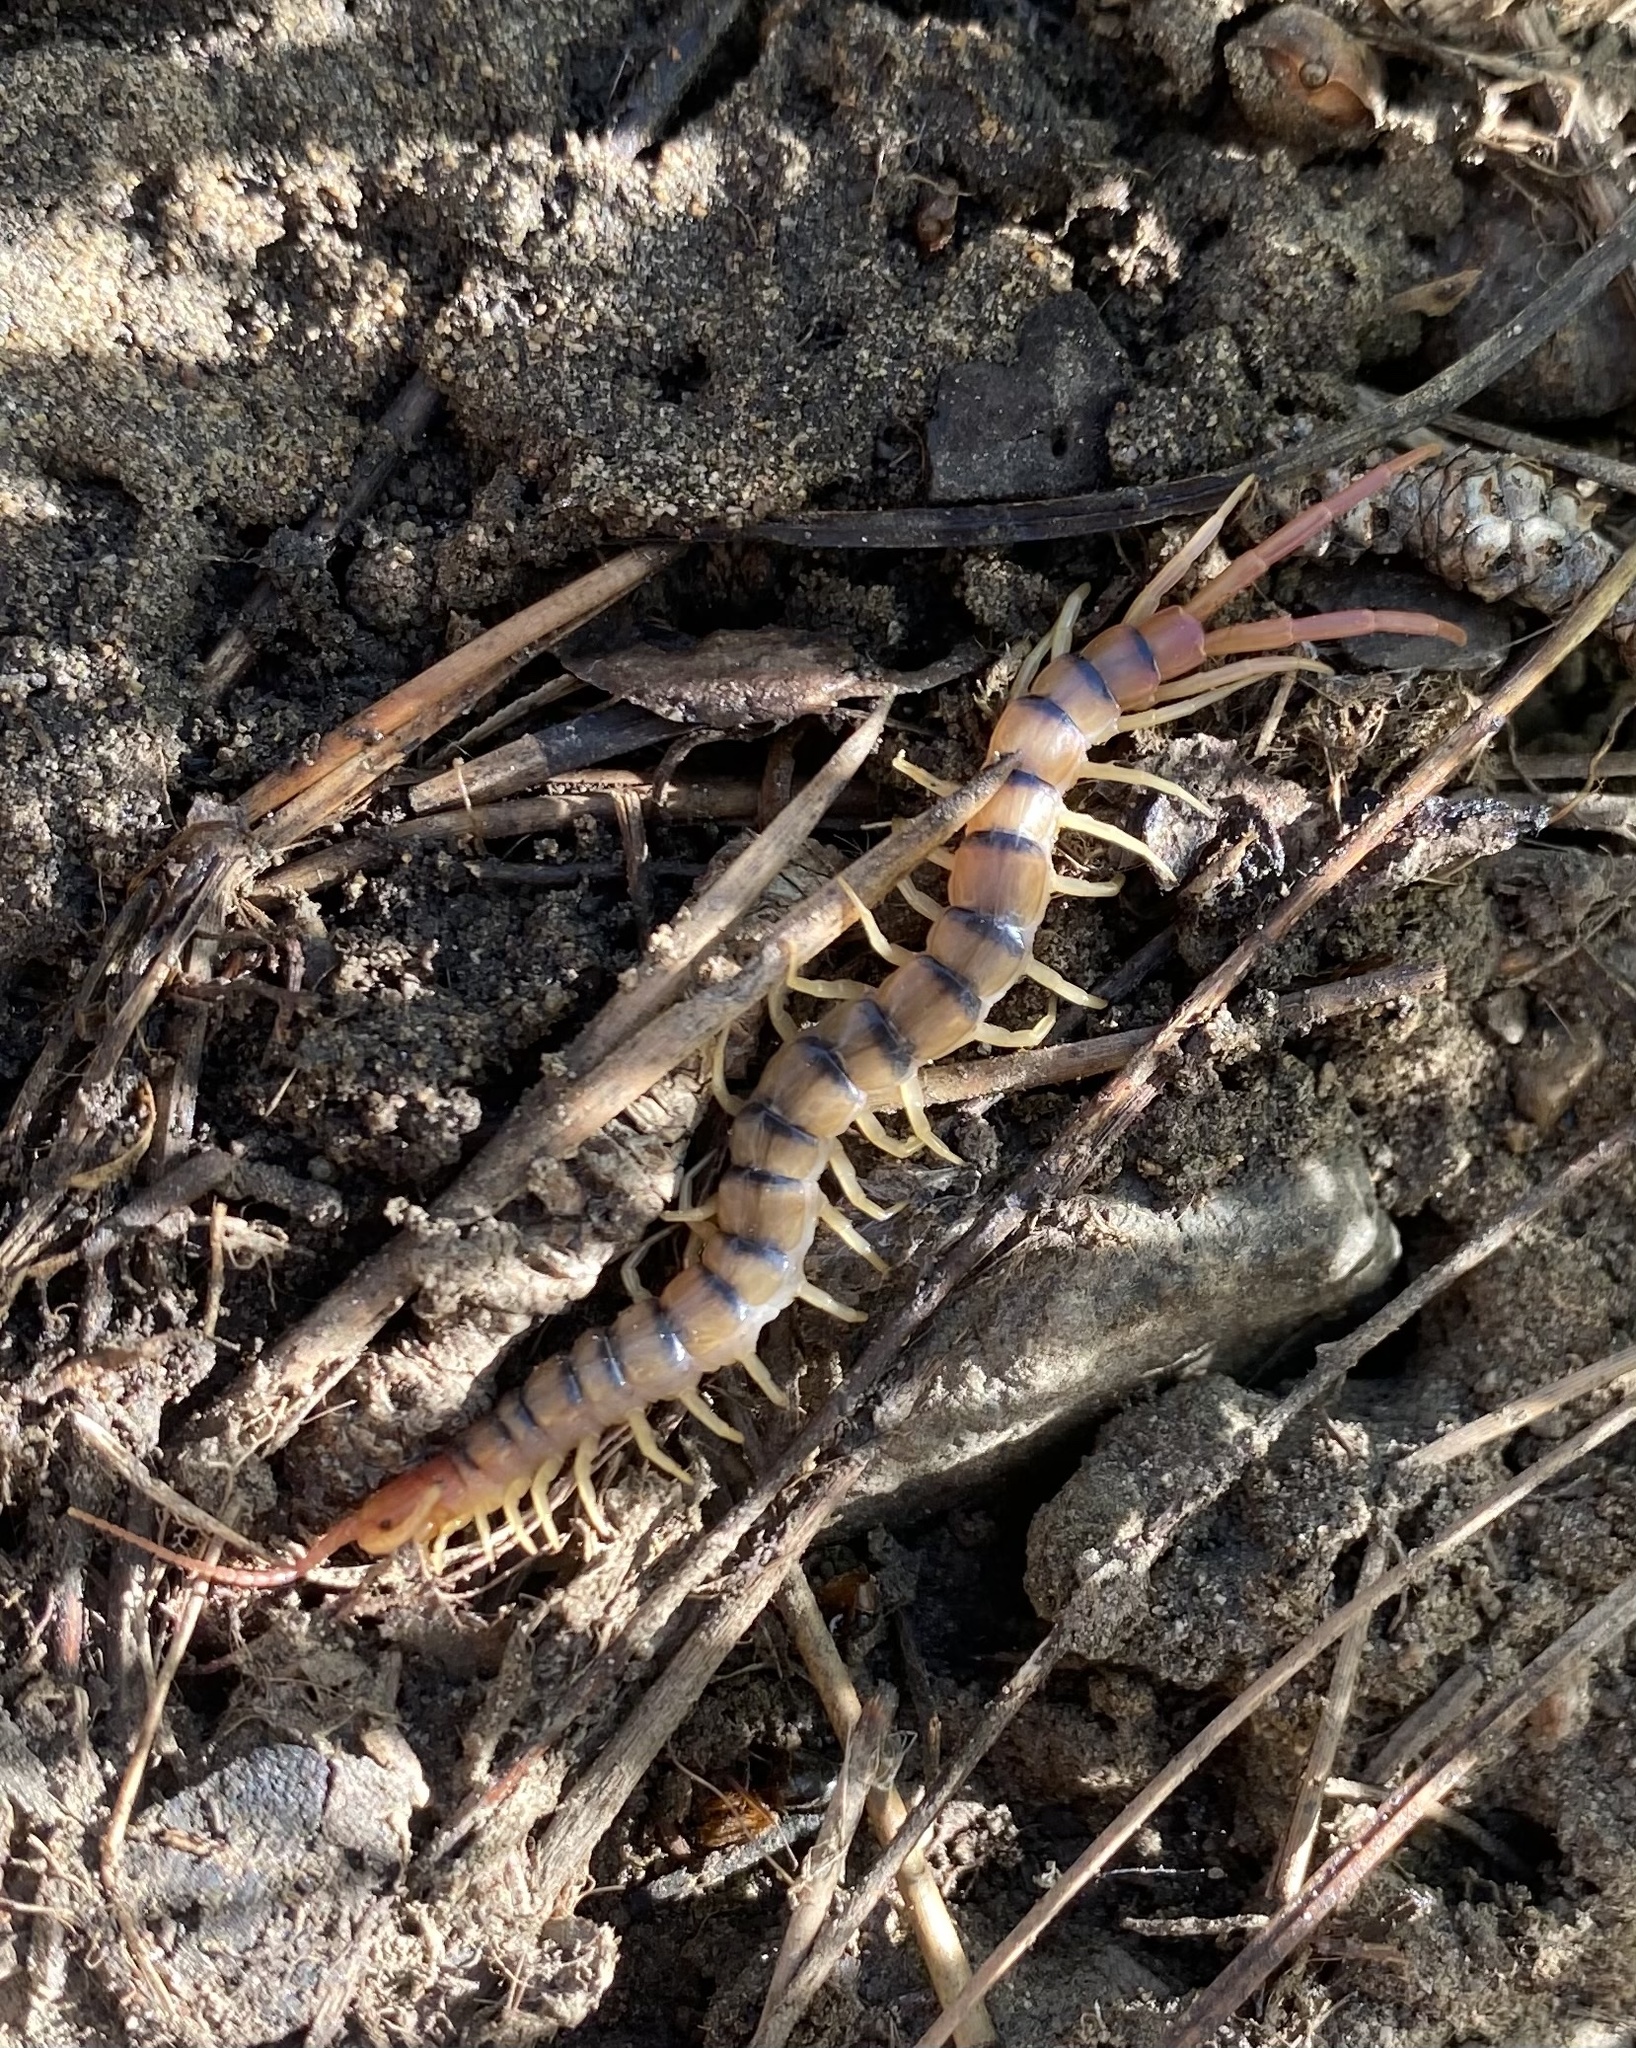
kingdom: Animalia
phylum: Arthropoda
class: Chilopoda
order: Scolopendromorpha
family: Scolopendridae
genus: Scolopendra
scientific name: Scolopendra polymorpha
